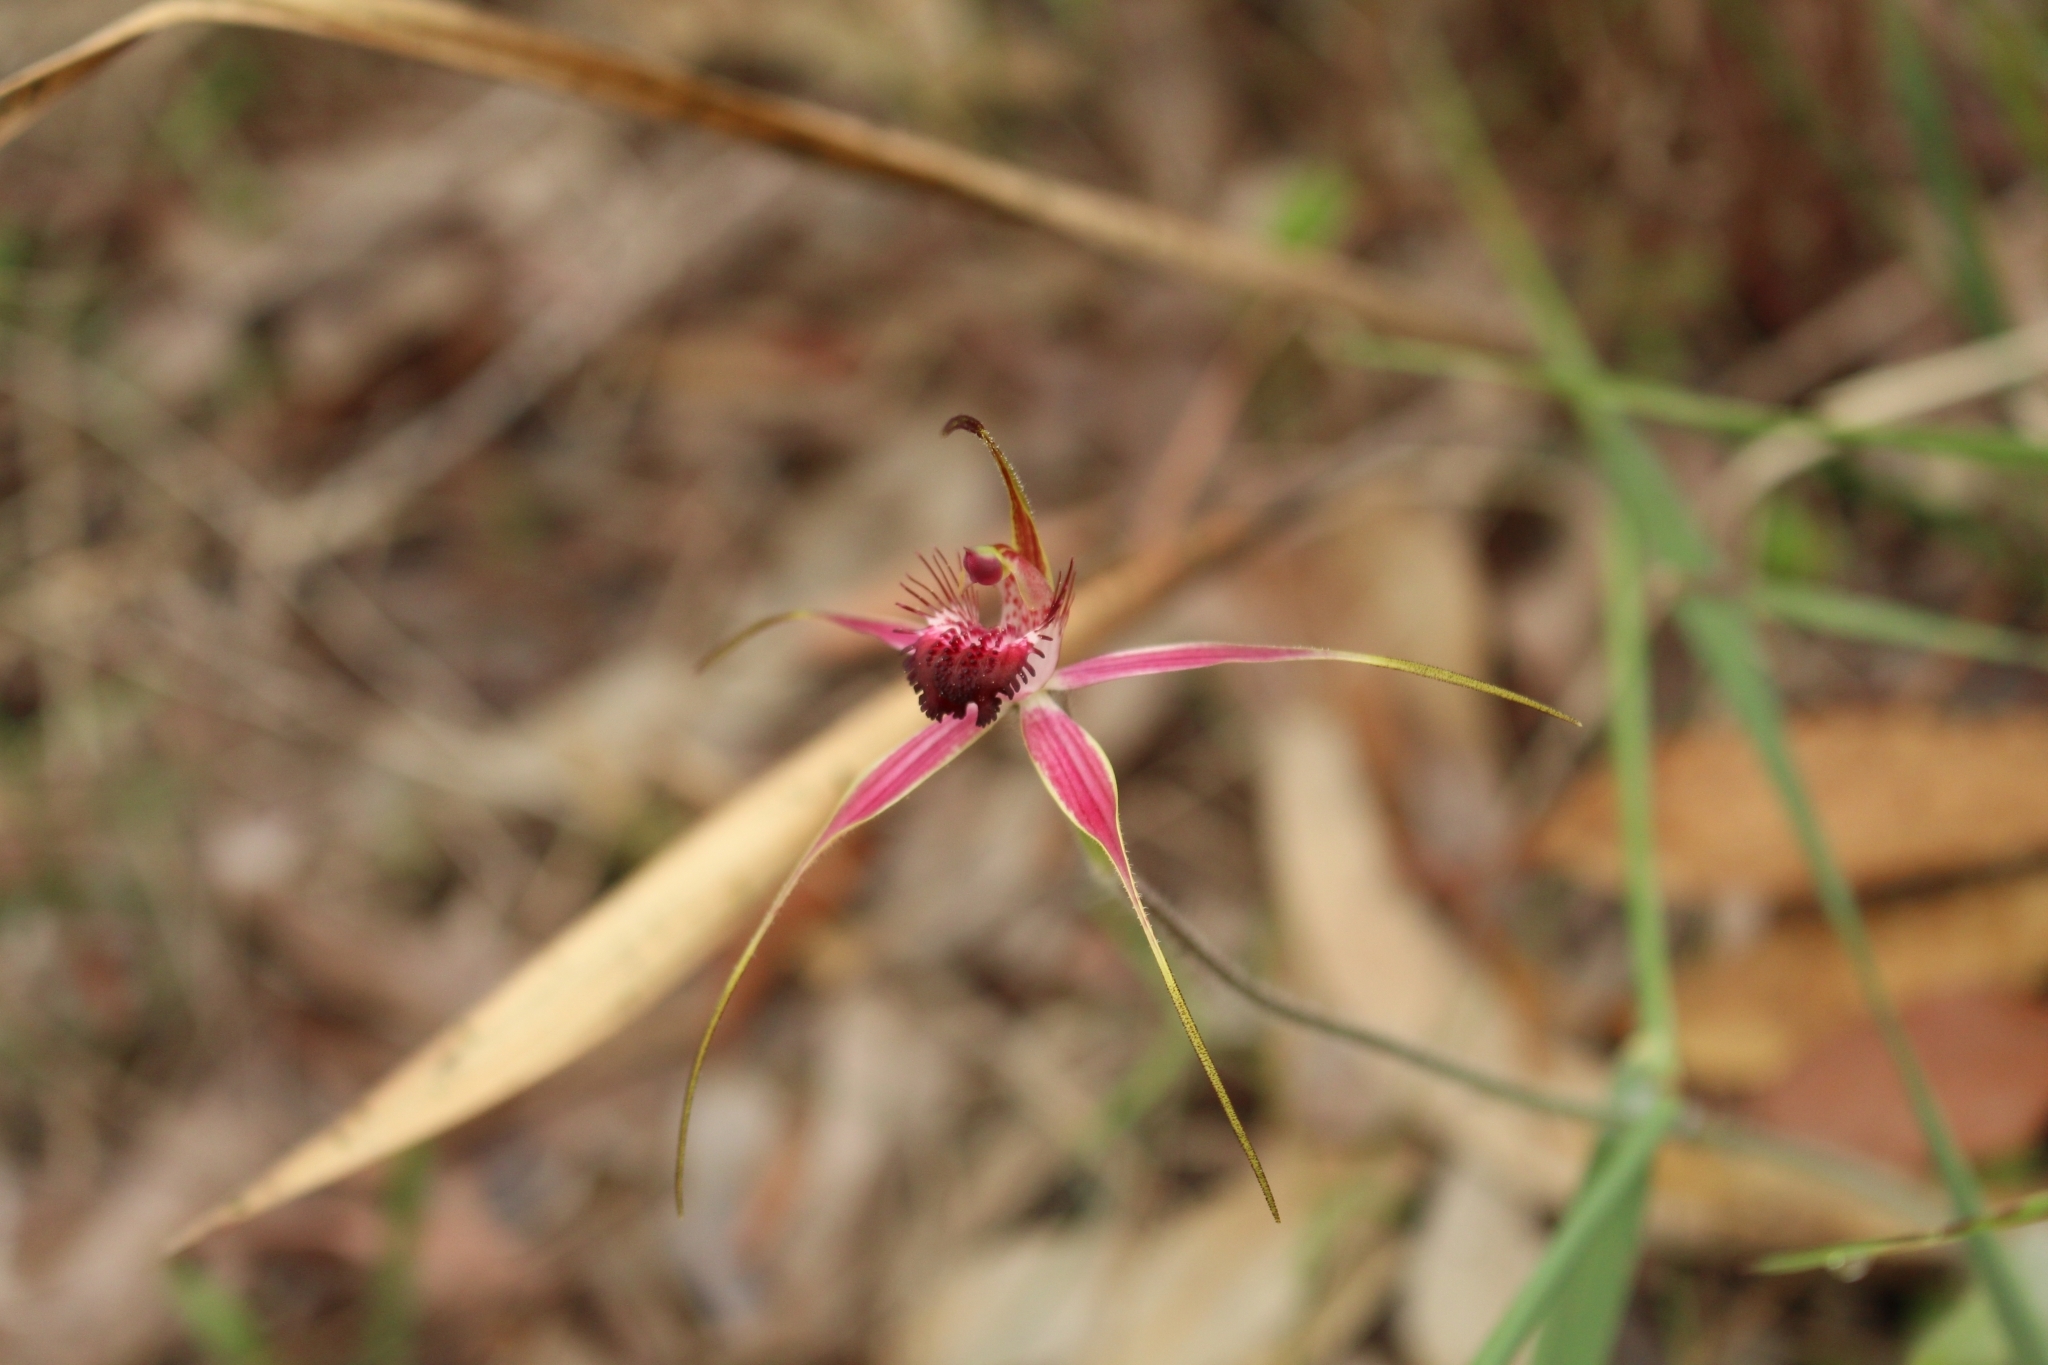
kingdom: Plantae
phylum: Tracheophyta
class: Liliopsida
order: Asparagales
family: Orchidaceae
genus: Caladenia
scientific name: Caladenia arenicola
